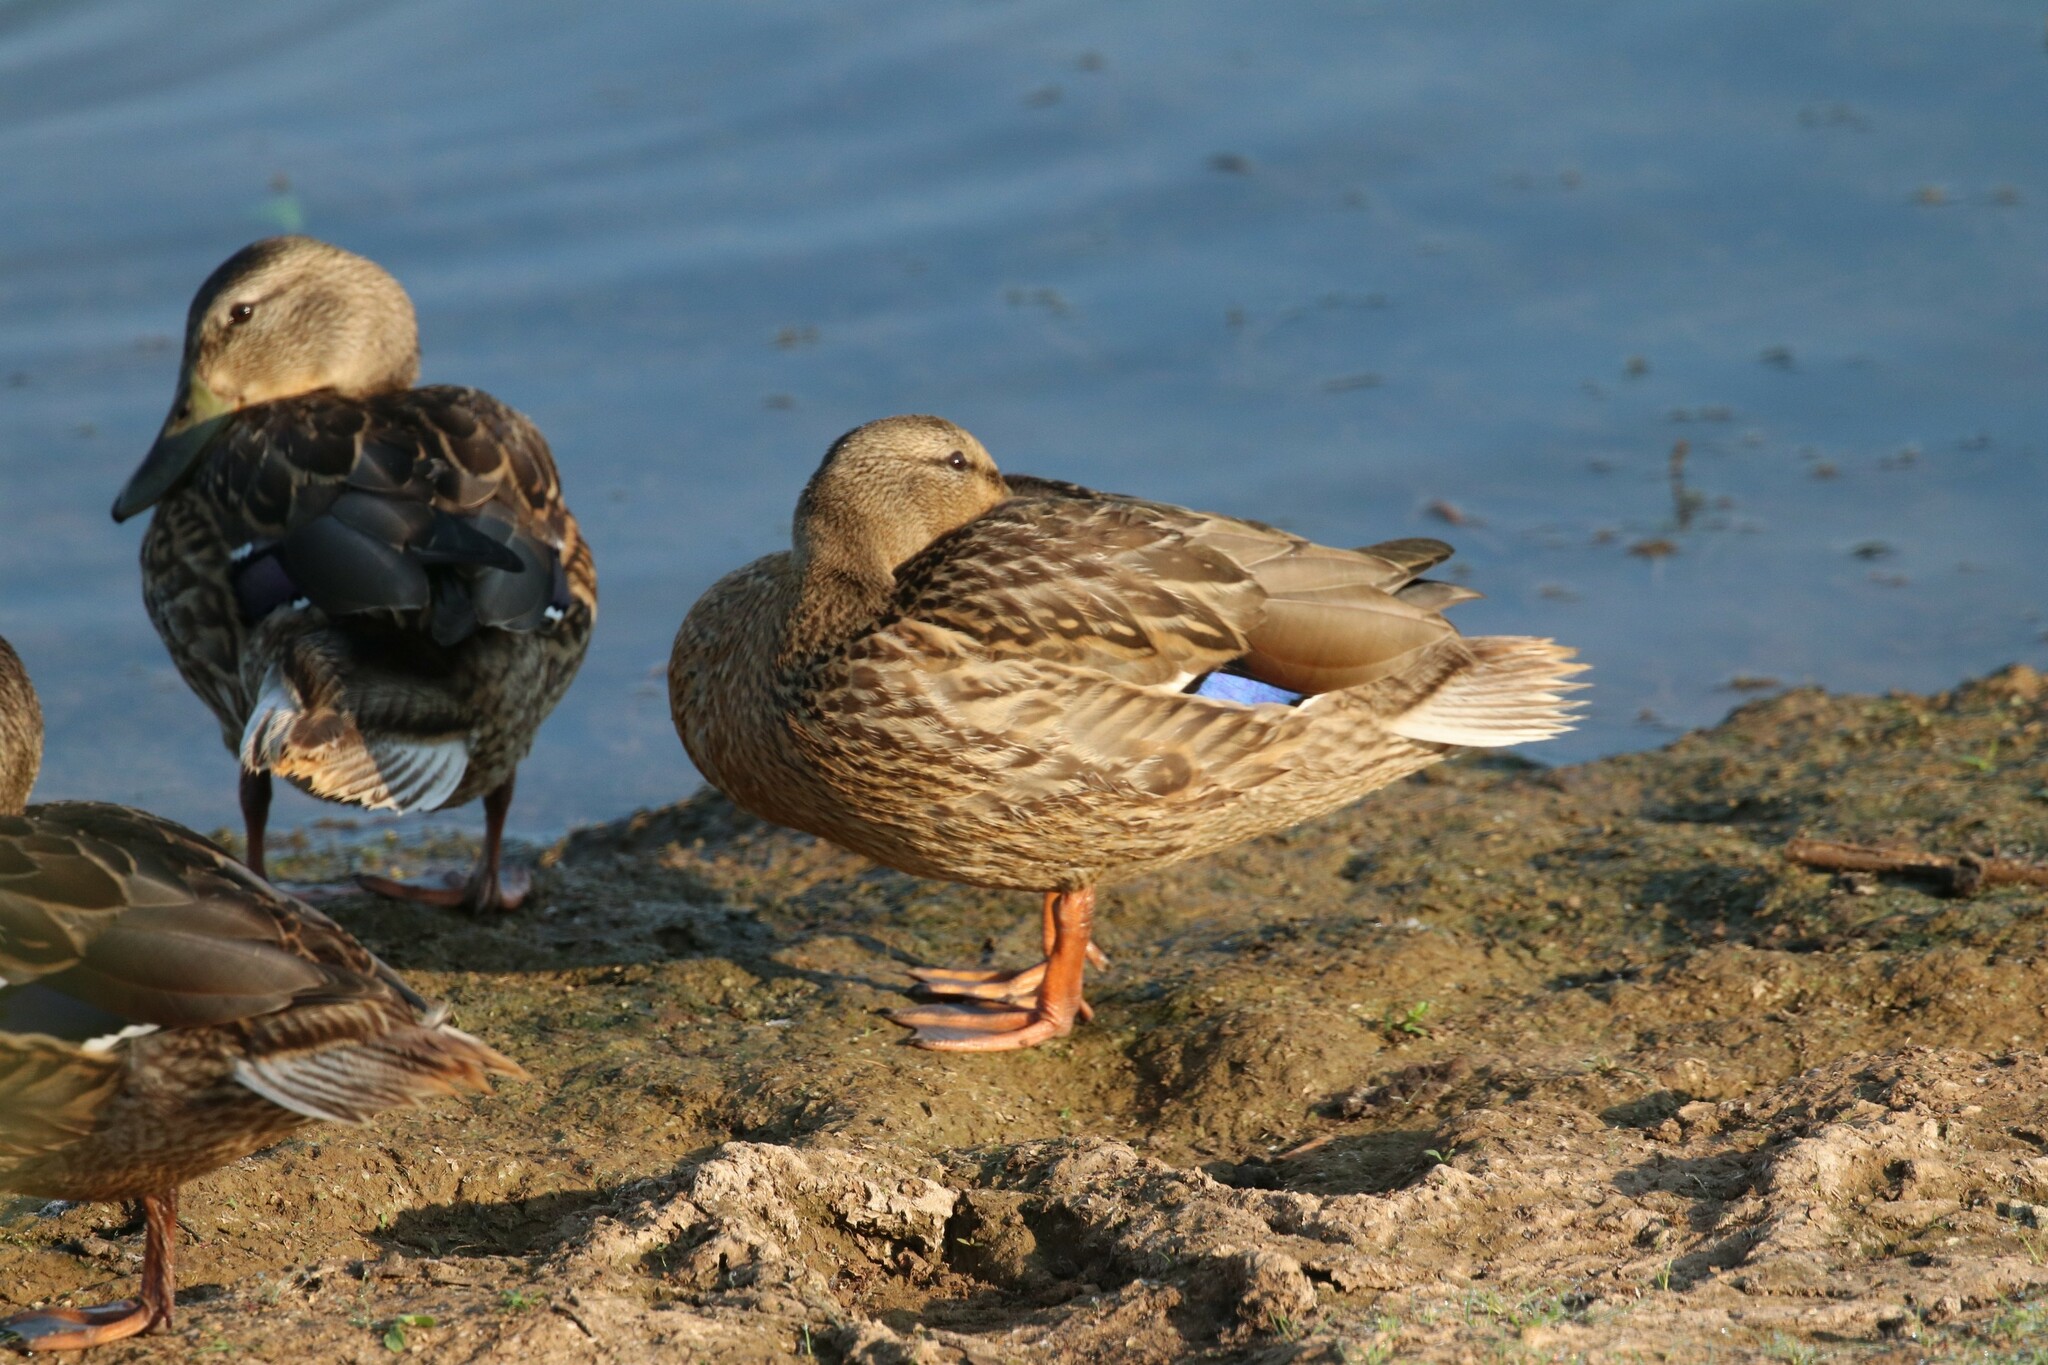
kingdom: Animalia
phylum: Chordata
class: Aves
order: Anseriformes
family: Anatidae
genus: Anas
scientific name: Anas platyrhynchos
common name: Mallard
